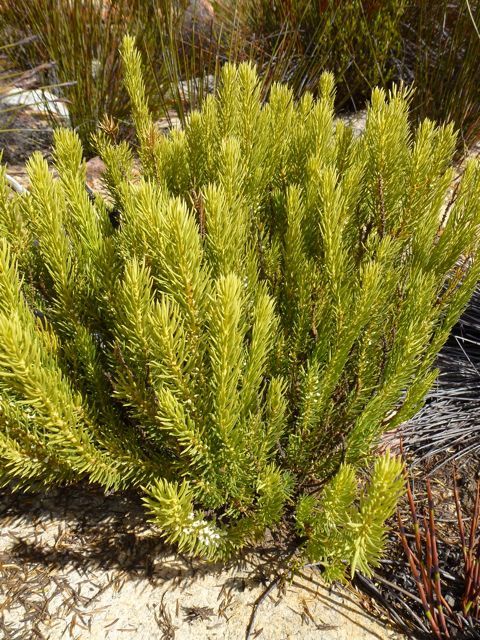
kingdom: Plantae
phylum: Tracheophyta
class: Magnoliopsida
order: Fabales
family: Polygalaceae
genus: Muraltia
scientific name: Muraltia bondii
